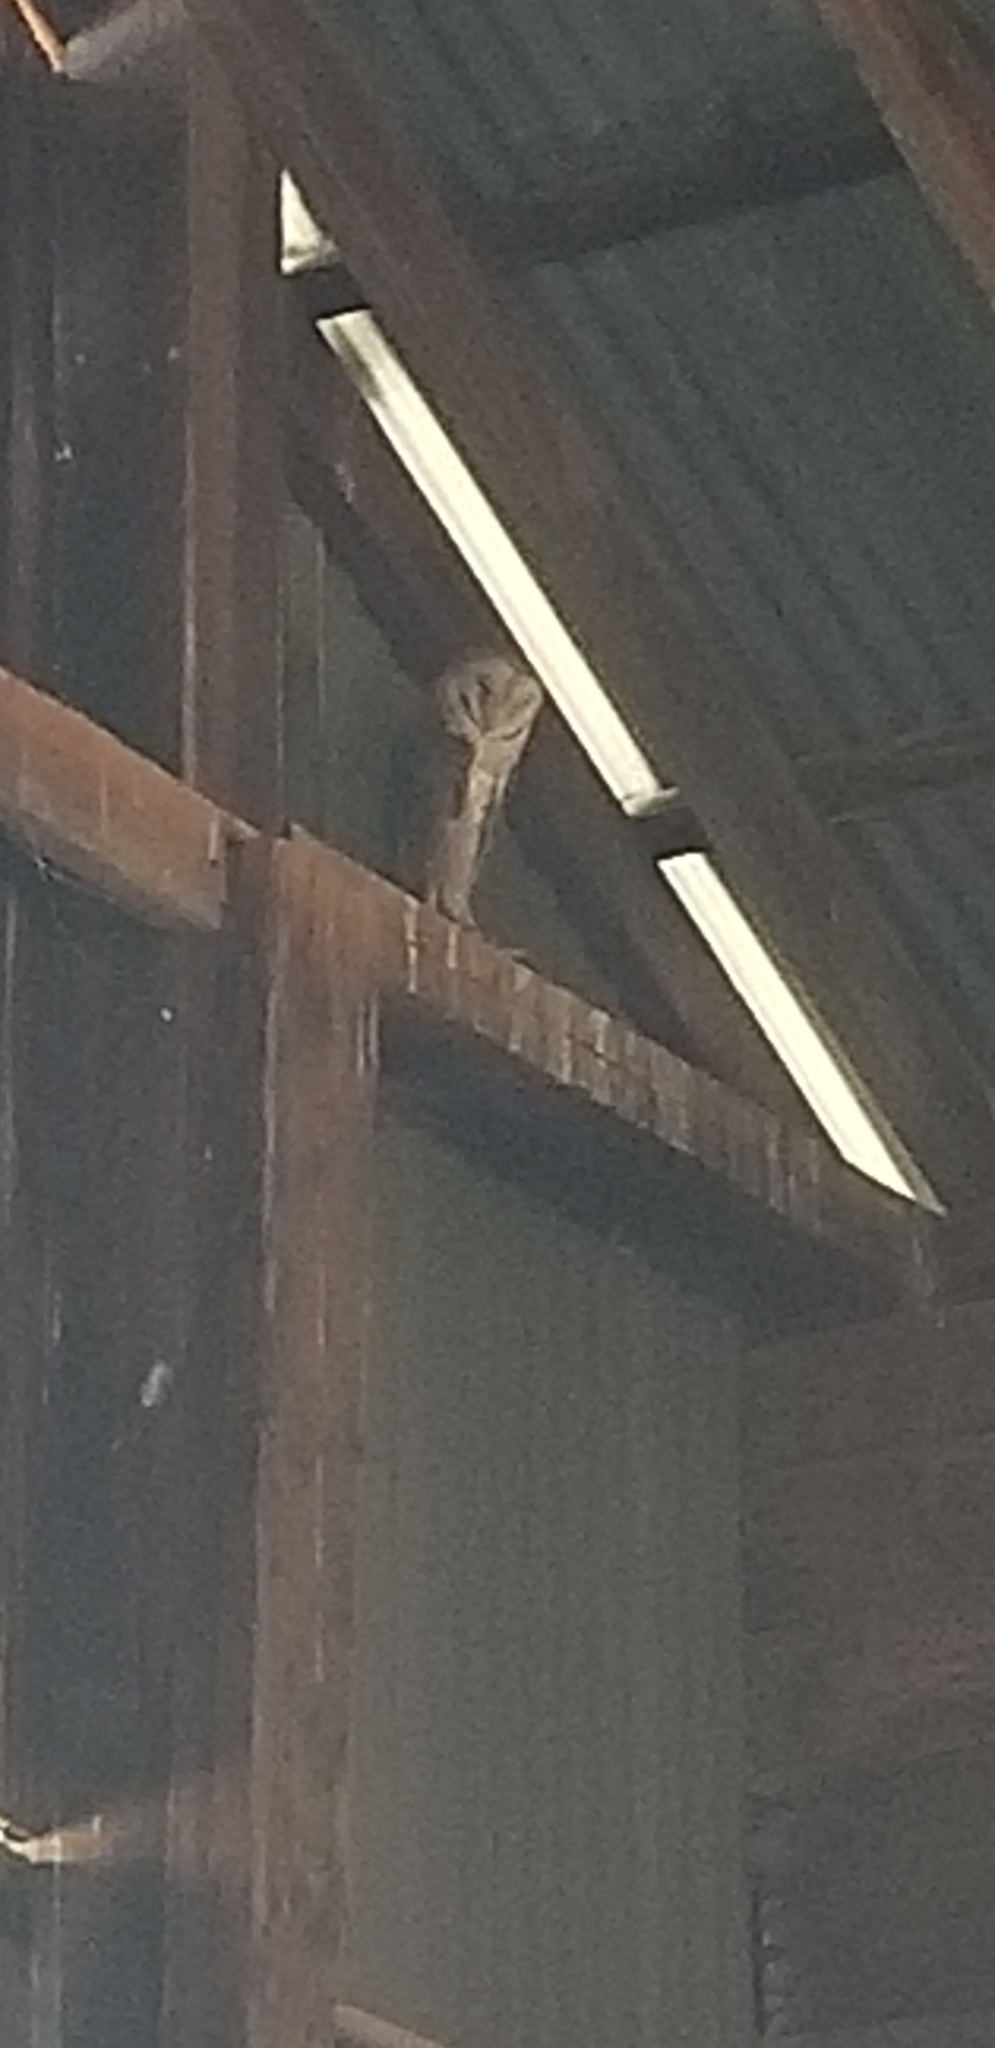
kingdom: Animalia
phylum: Chordata
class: Aves
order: Strigiformes
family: Tytonidae
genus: Tyto
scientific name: Tyto alba
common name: Barn owl
